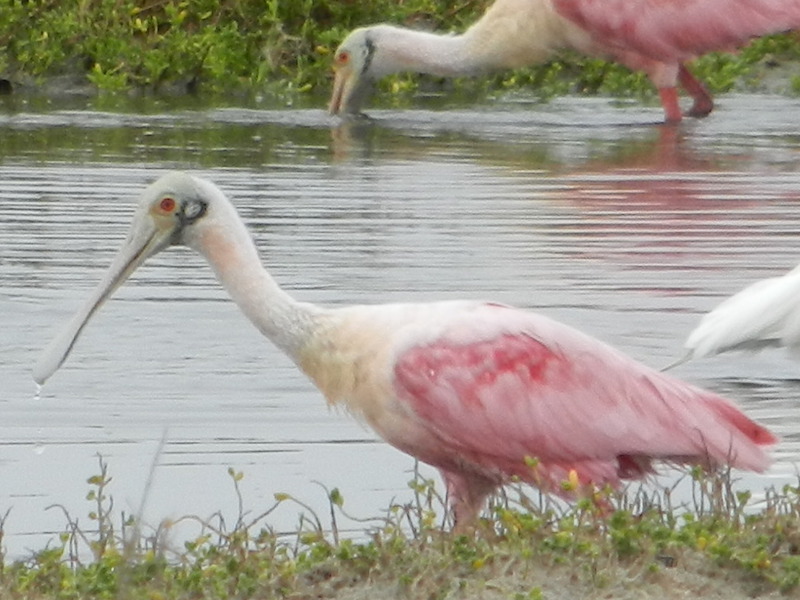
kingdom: Animalia
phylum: Chordata
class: Aves
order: Pelecaniformes
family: Threskiornithidae
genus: Platalea
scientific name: Platalea ajaja
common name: Roseate spoonbill
